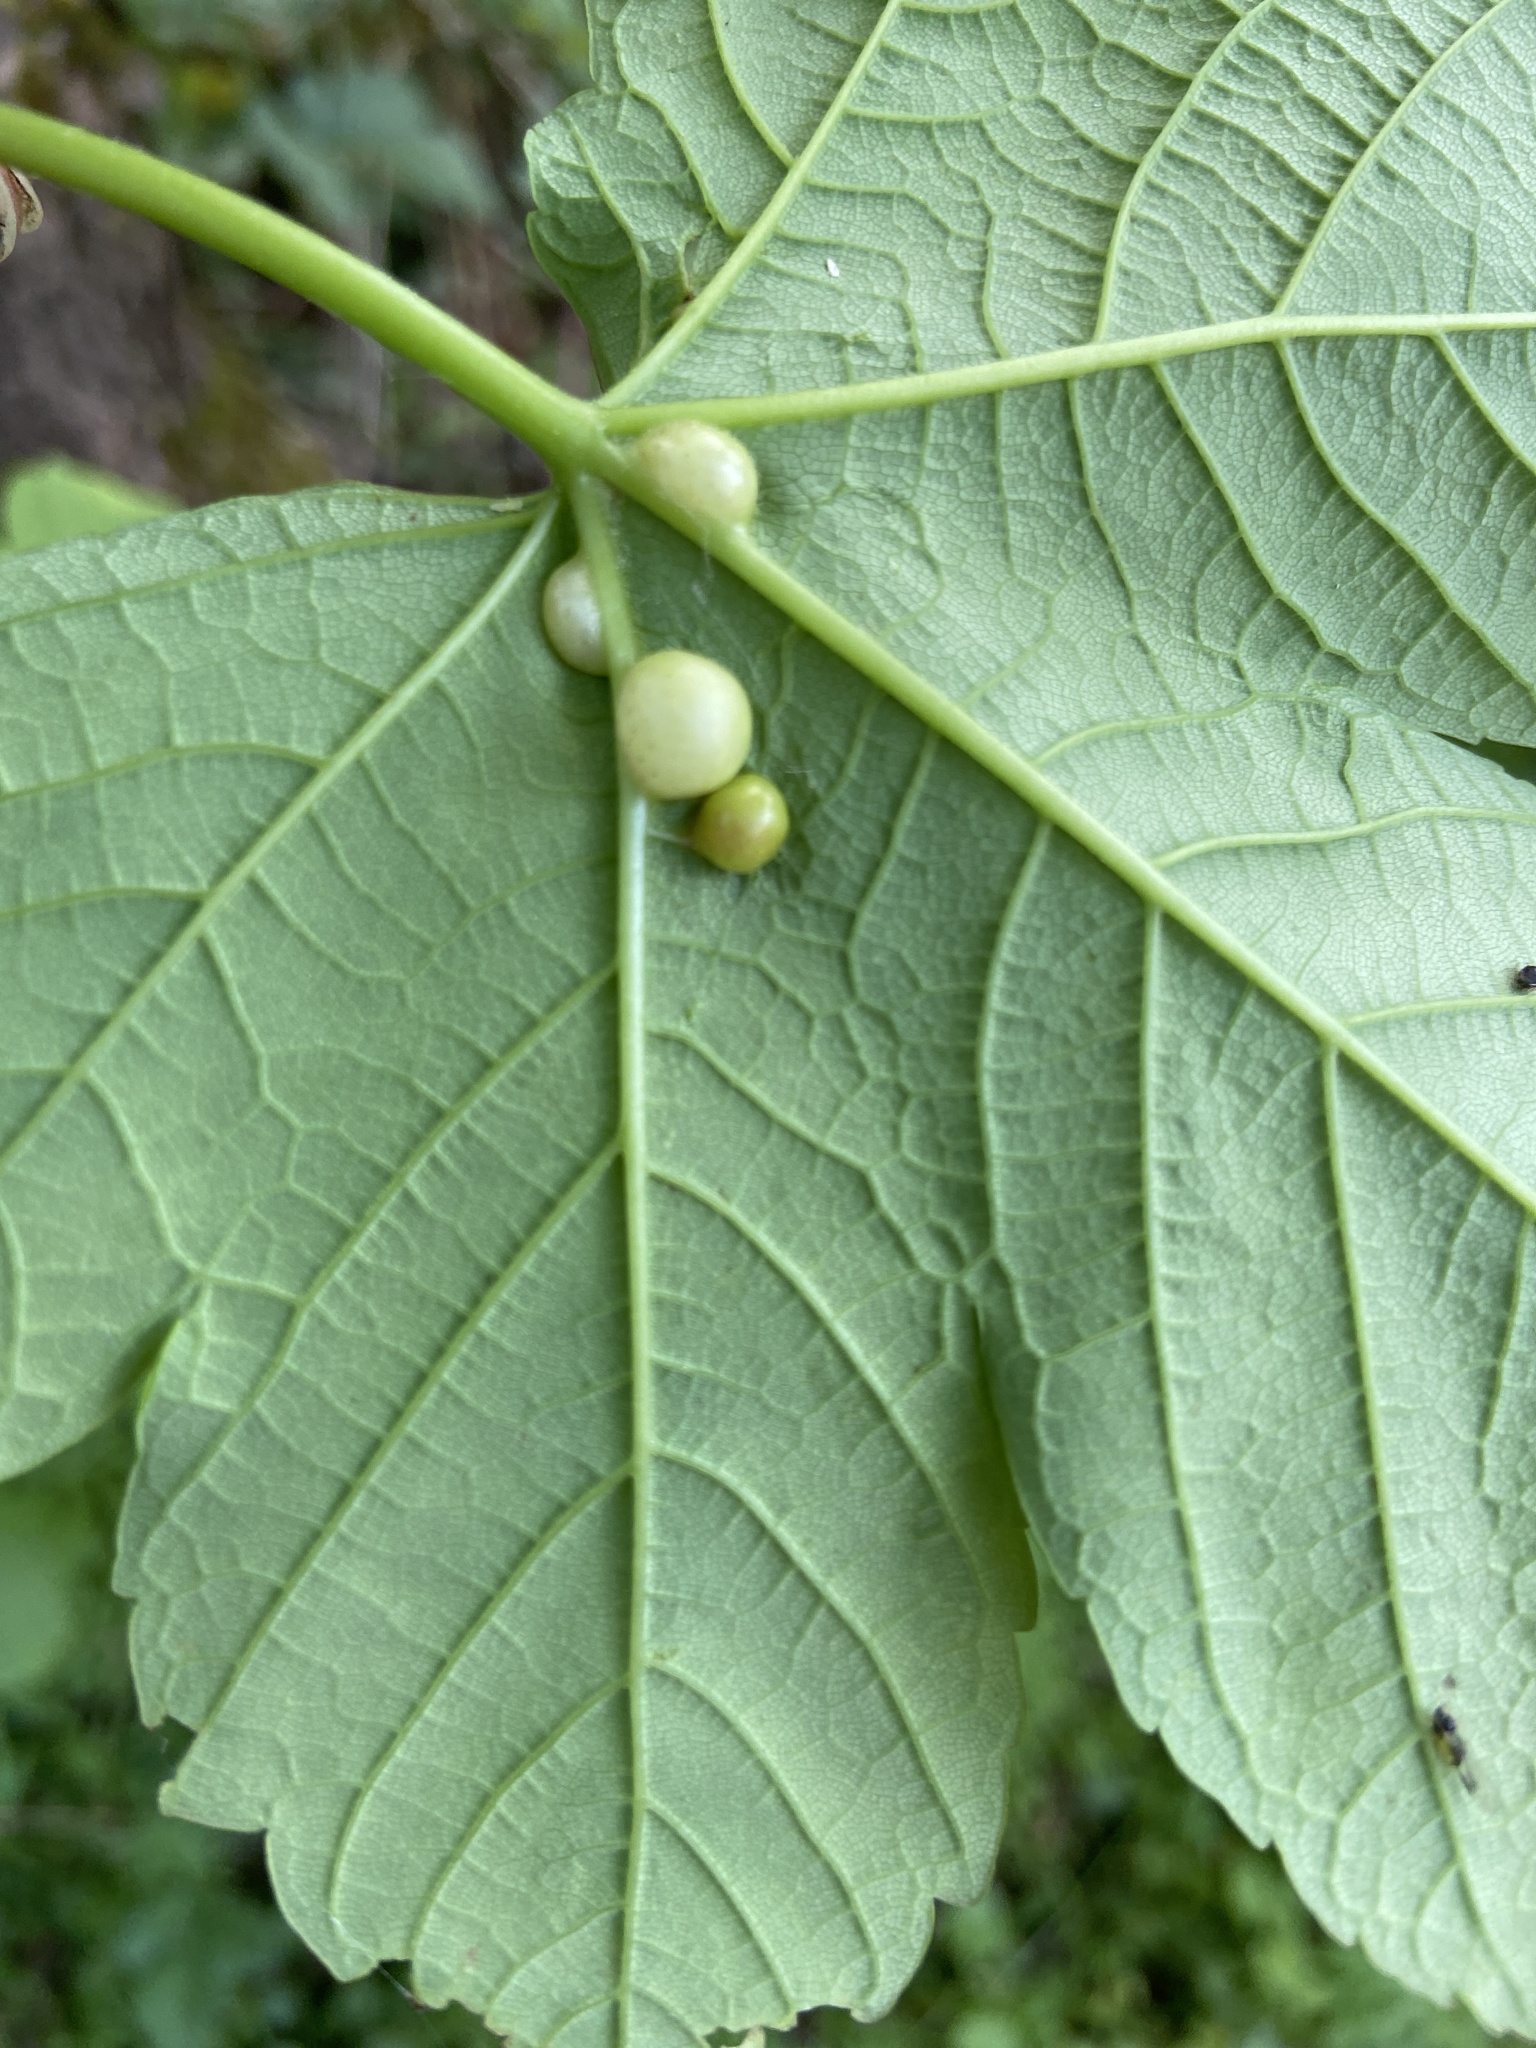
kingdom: Animalia
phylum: Arthropoda
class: Insecta
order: Hymenoptera
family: Cynipidae
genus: Pediaspis
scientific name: Pediaspis aceris
